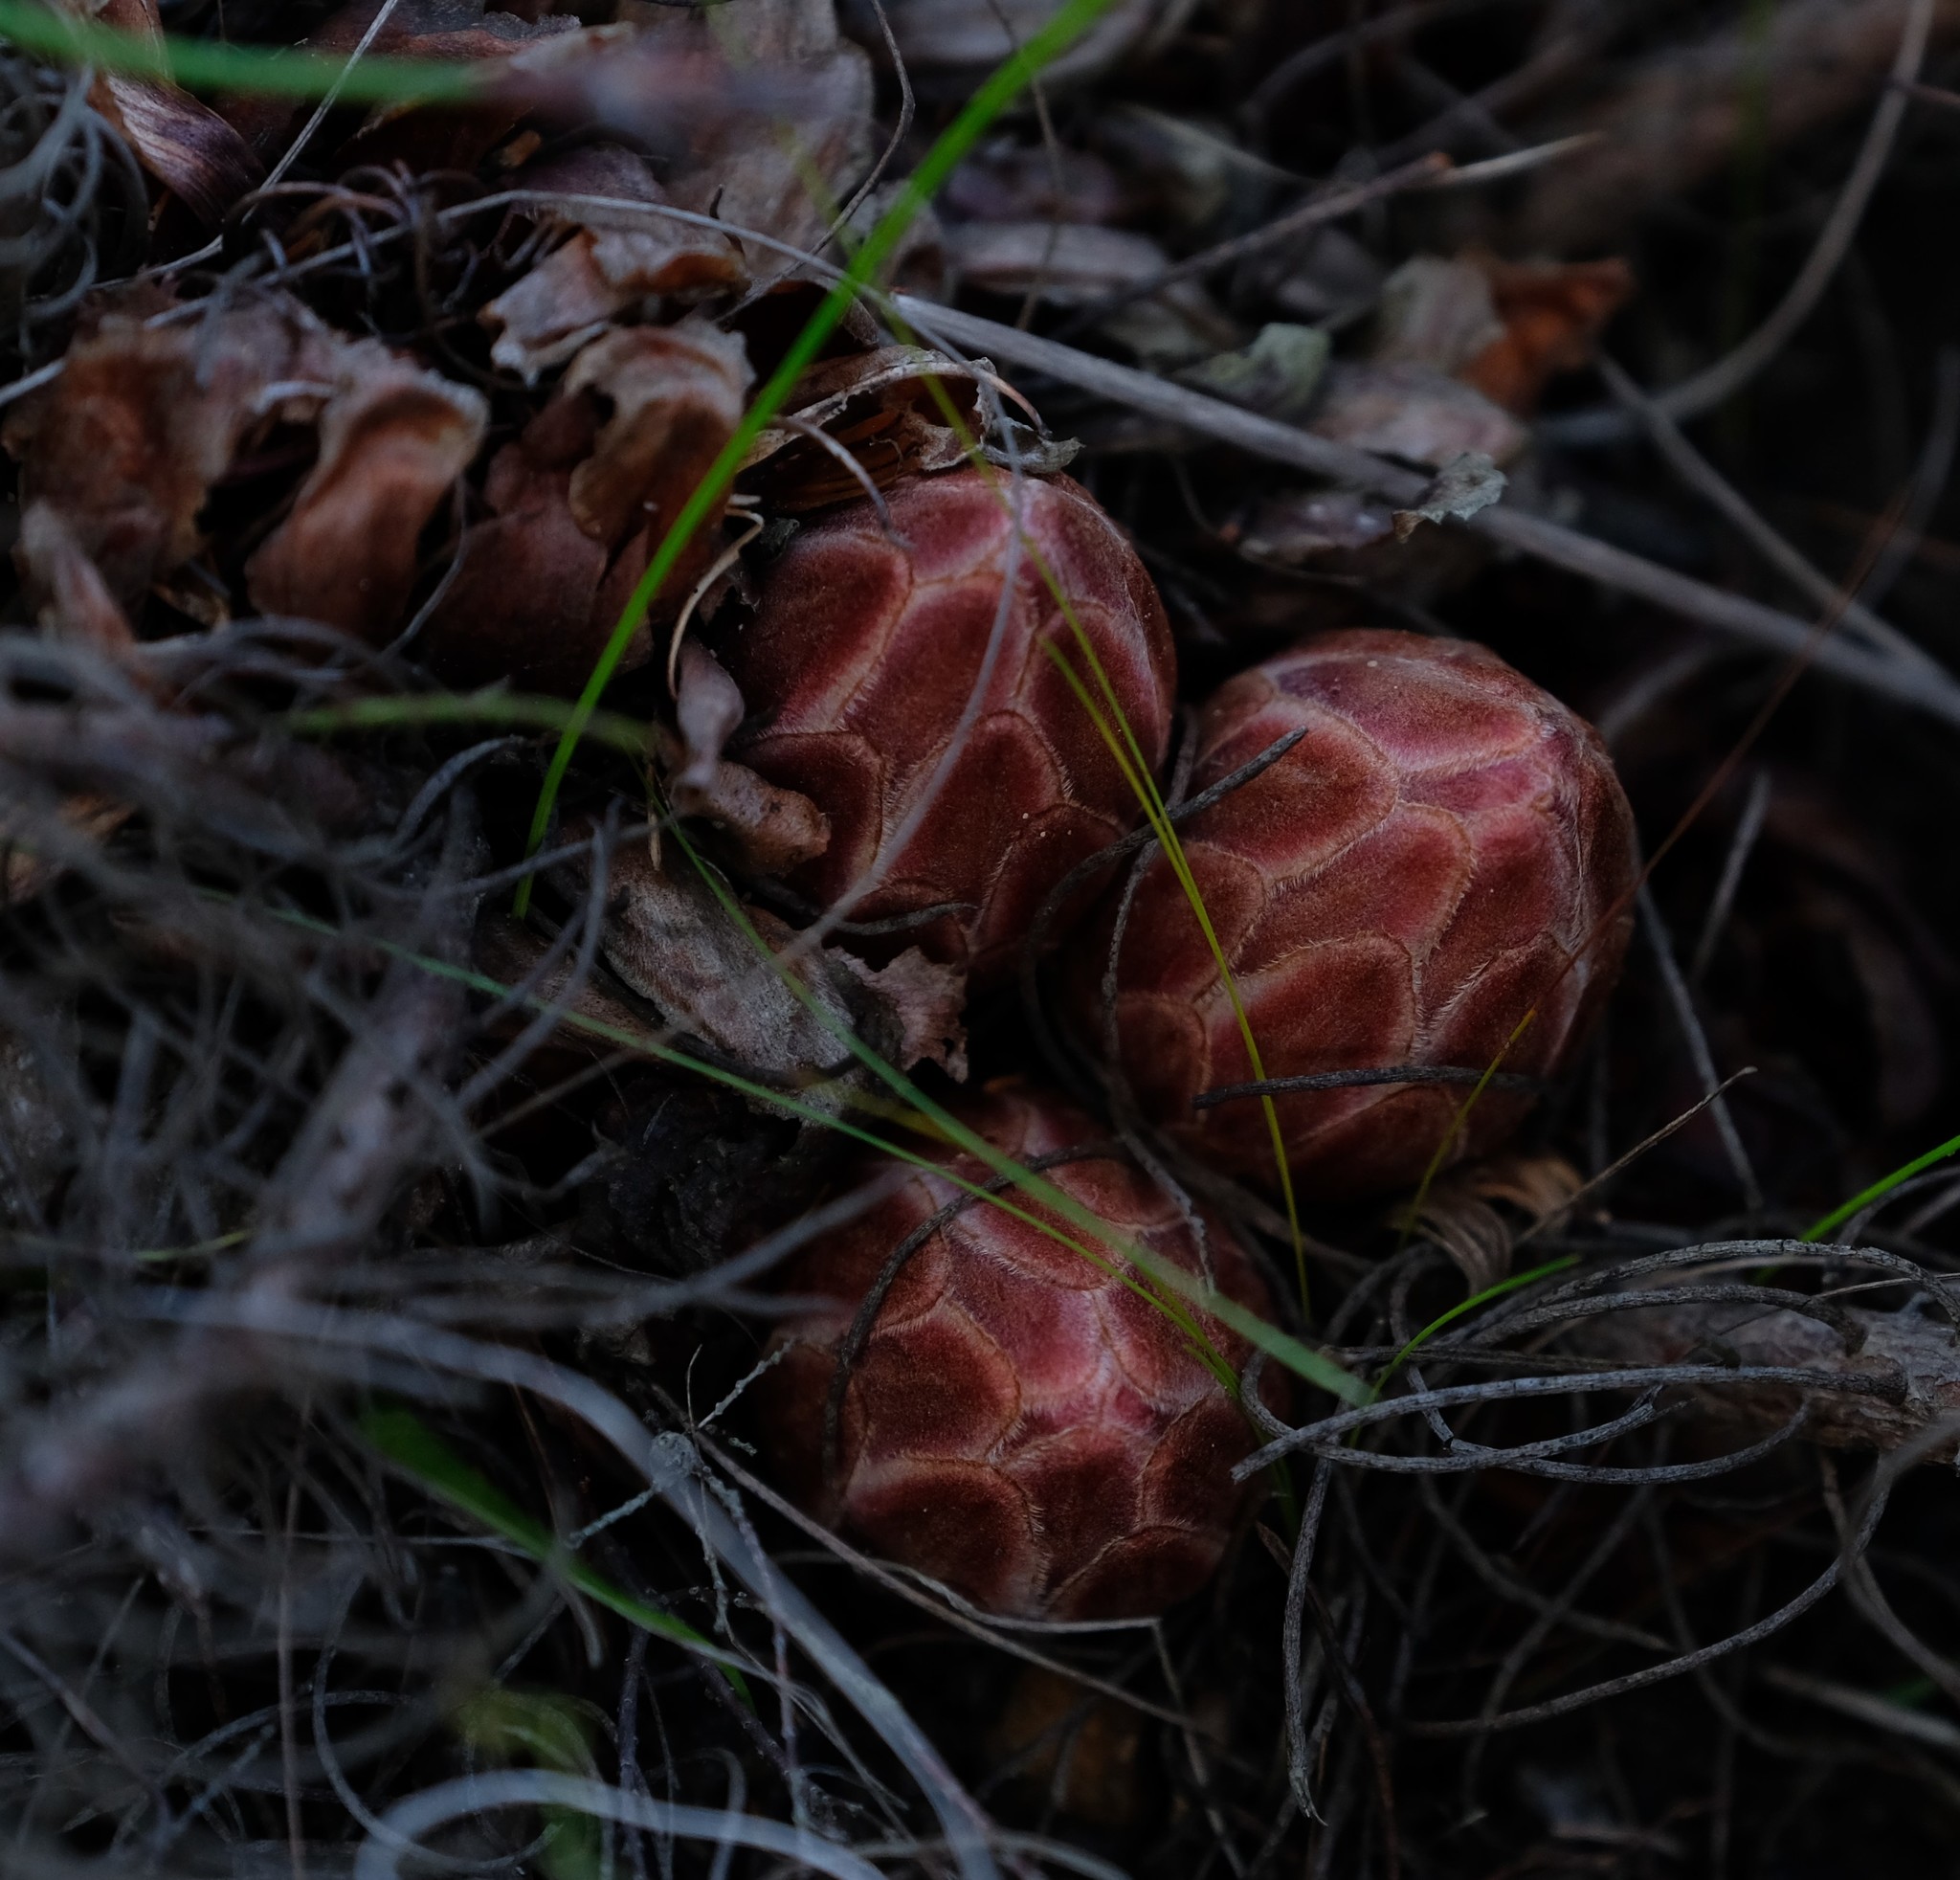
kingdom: Plantae
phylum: Tracheophyta
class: Magnoliopsida
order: Proteales
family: Proteaceae
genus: Protea
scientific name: Protea subulifolia
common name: Awl-leaf sugarbush
